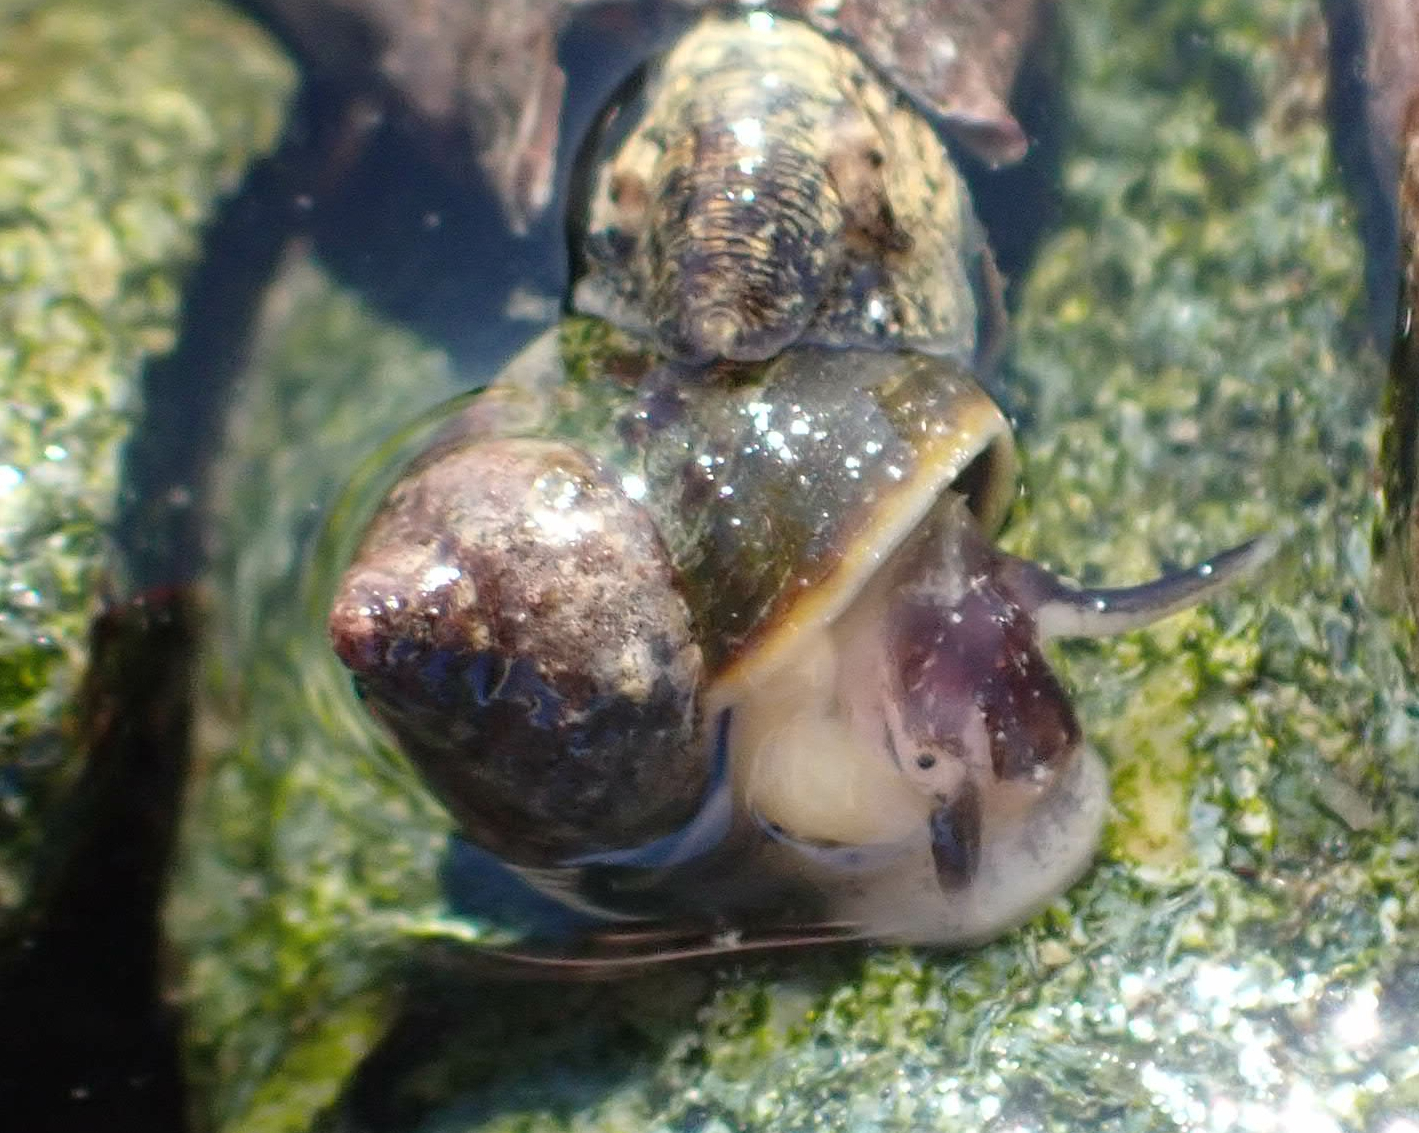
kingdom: Animalia
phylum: Mollusca
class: Gastropoda
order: Littorinimorpha
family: Littorinidae
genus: Littorina
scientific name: Littorina sitkana
